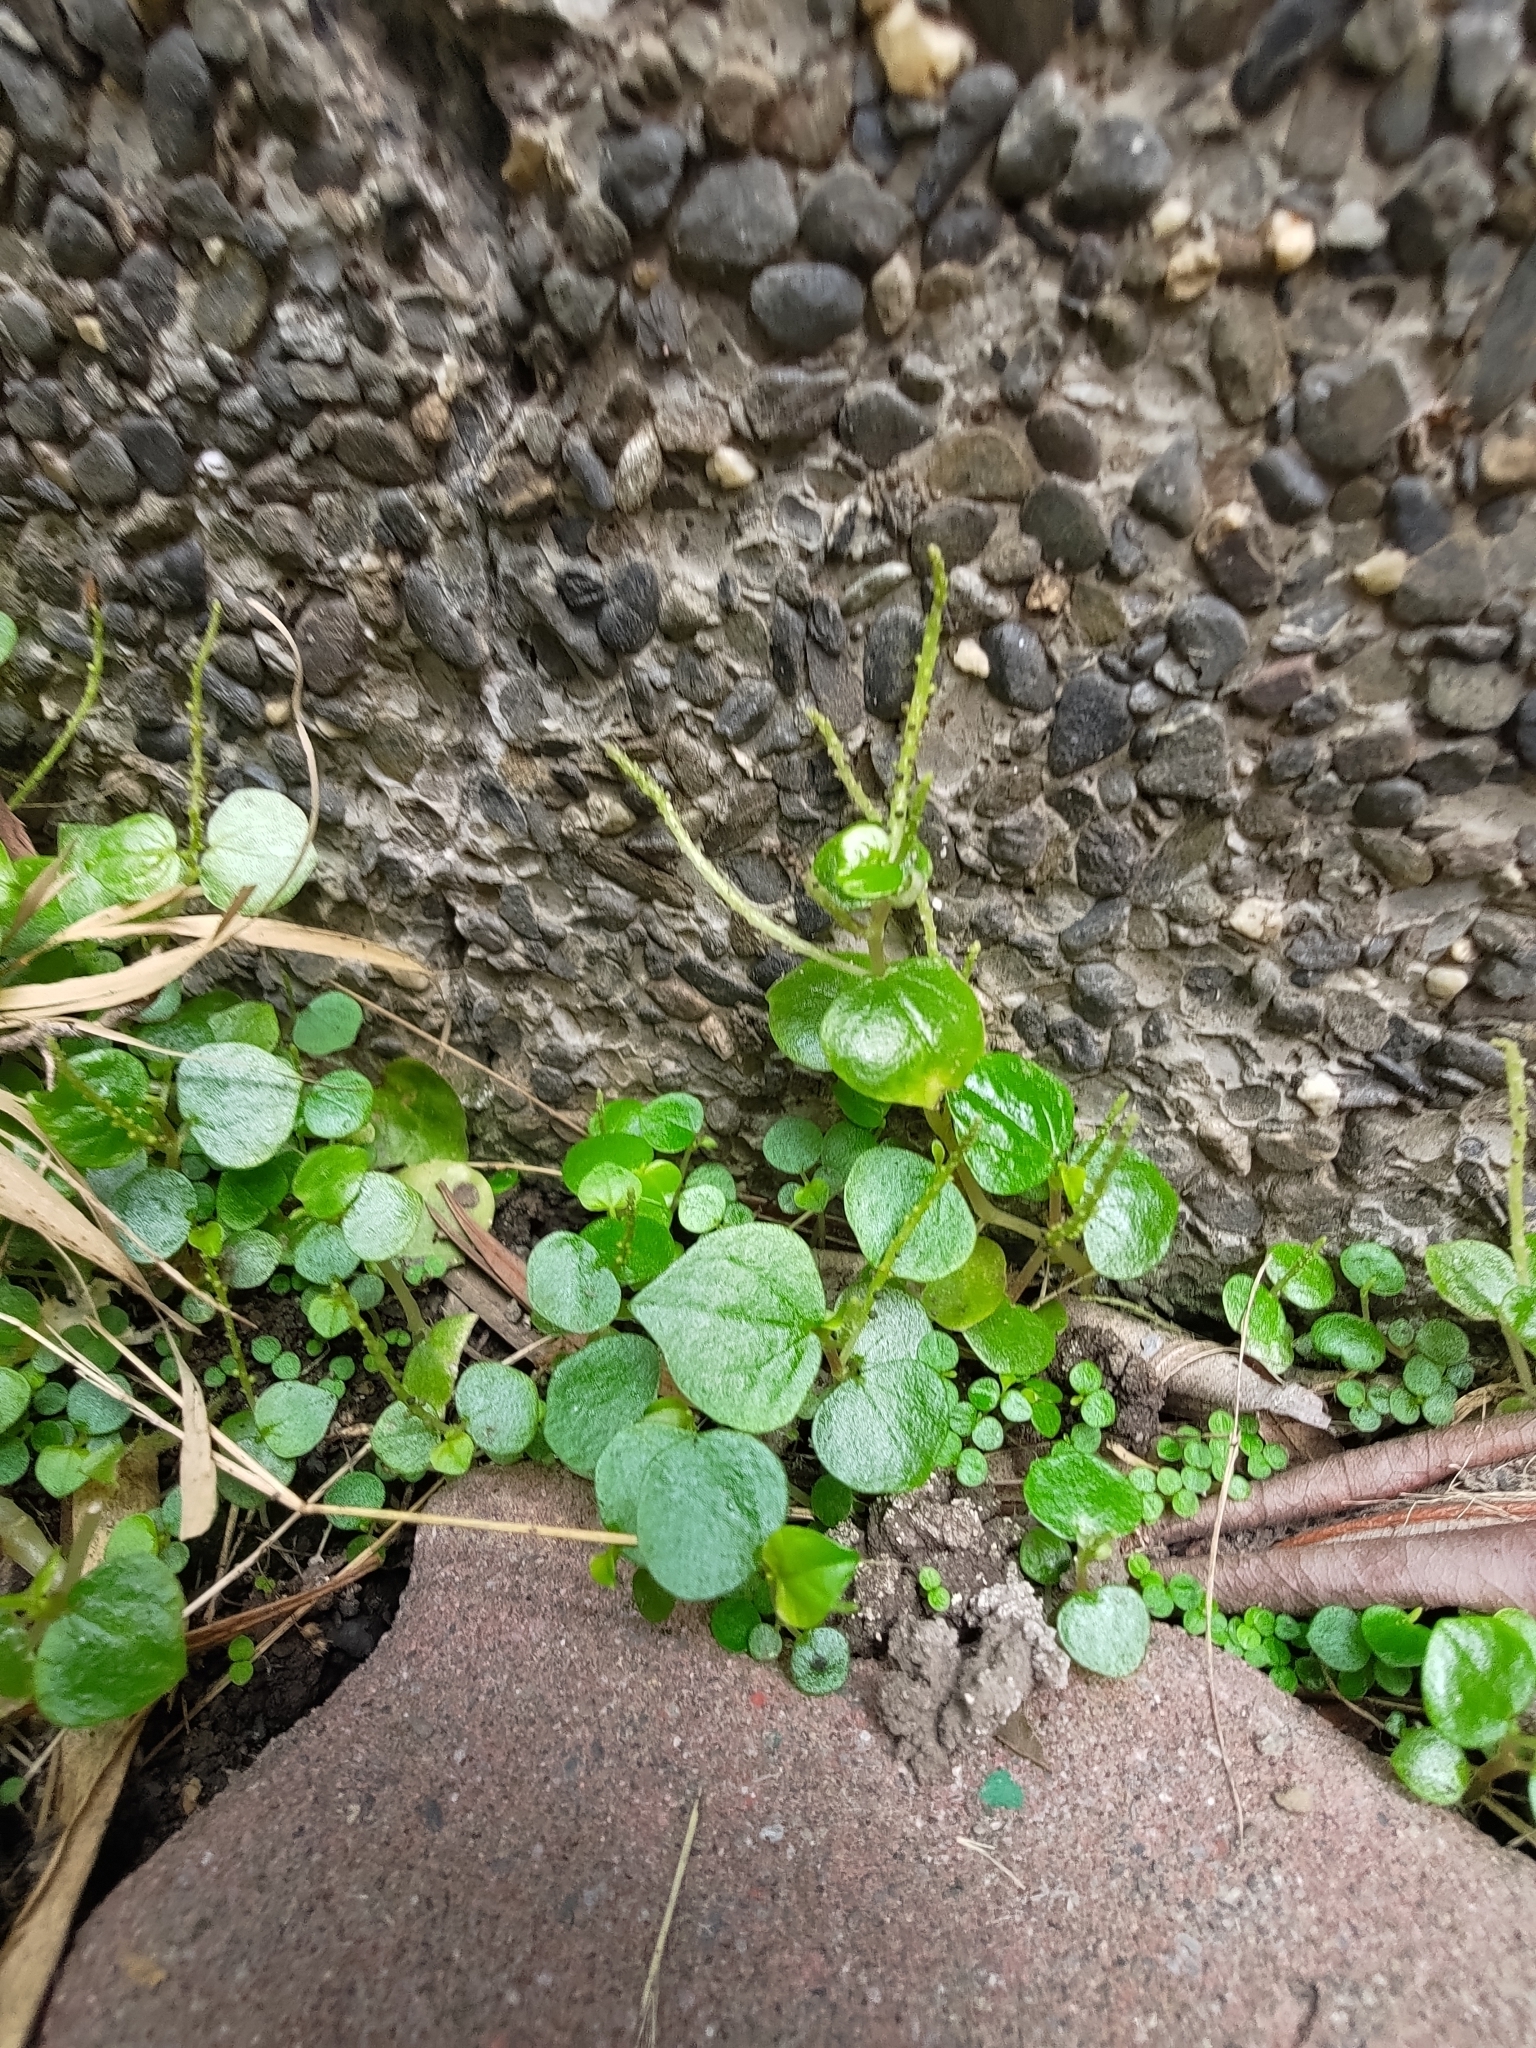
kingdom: Plantae
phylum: Tracheophyta
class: Magnoliopsida
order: Piperales
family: Piperaceae
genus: Peperomia
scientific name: Peperomia pellucida
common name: Man to man
